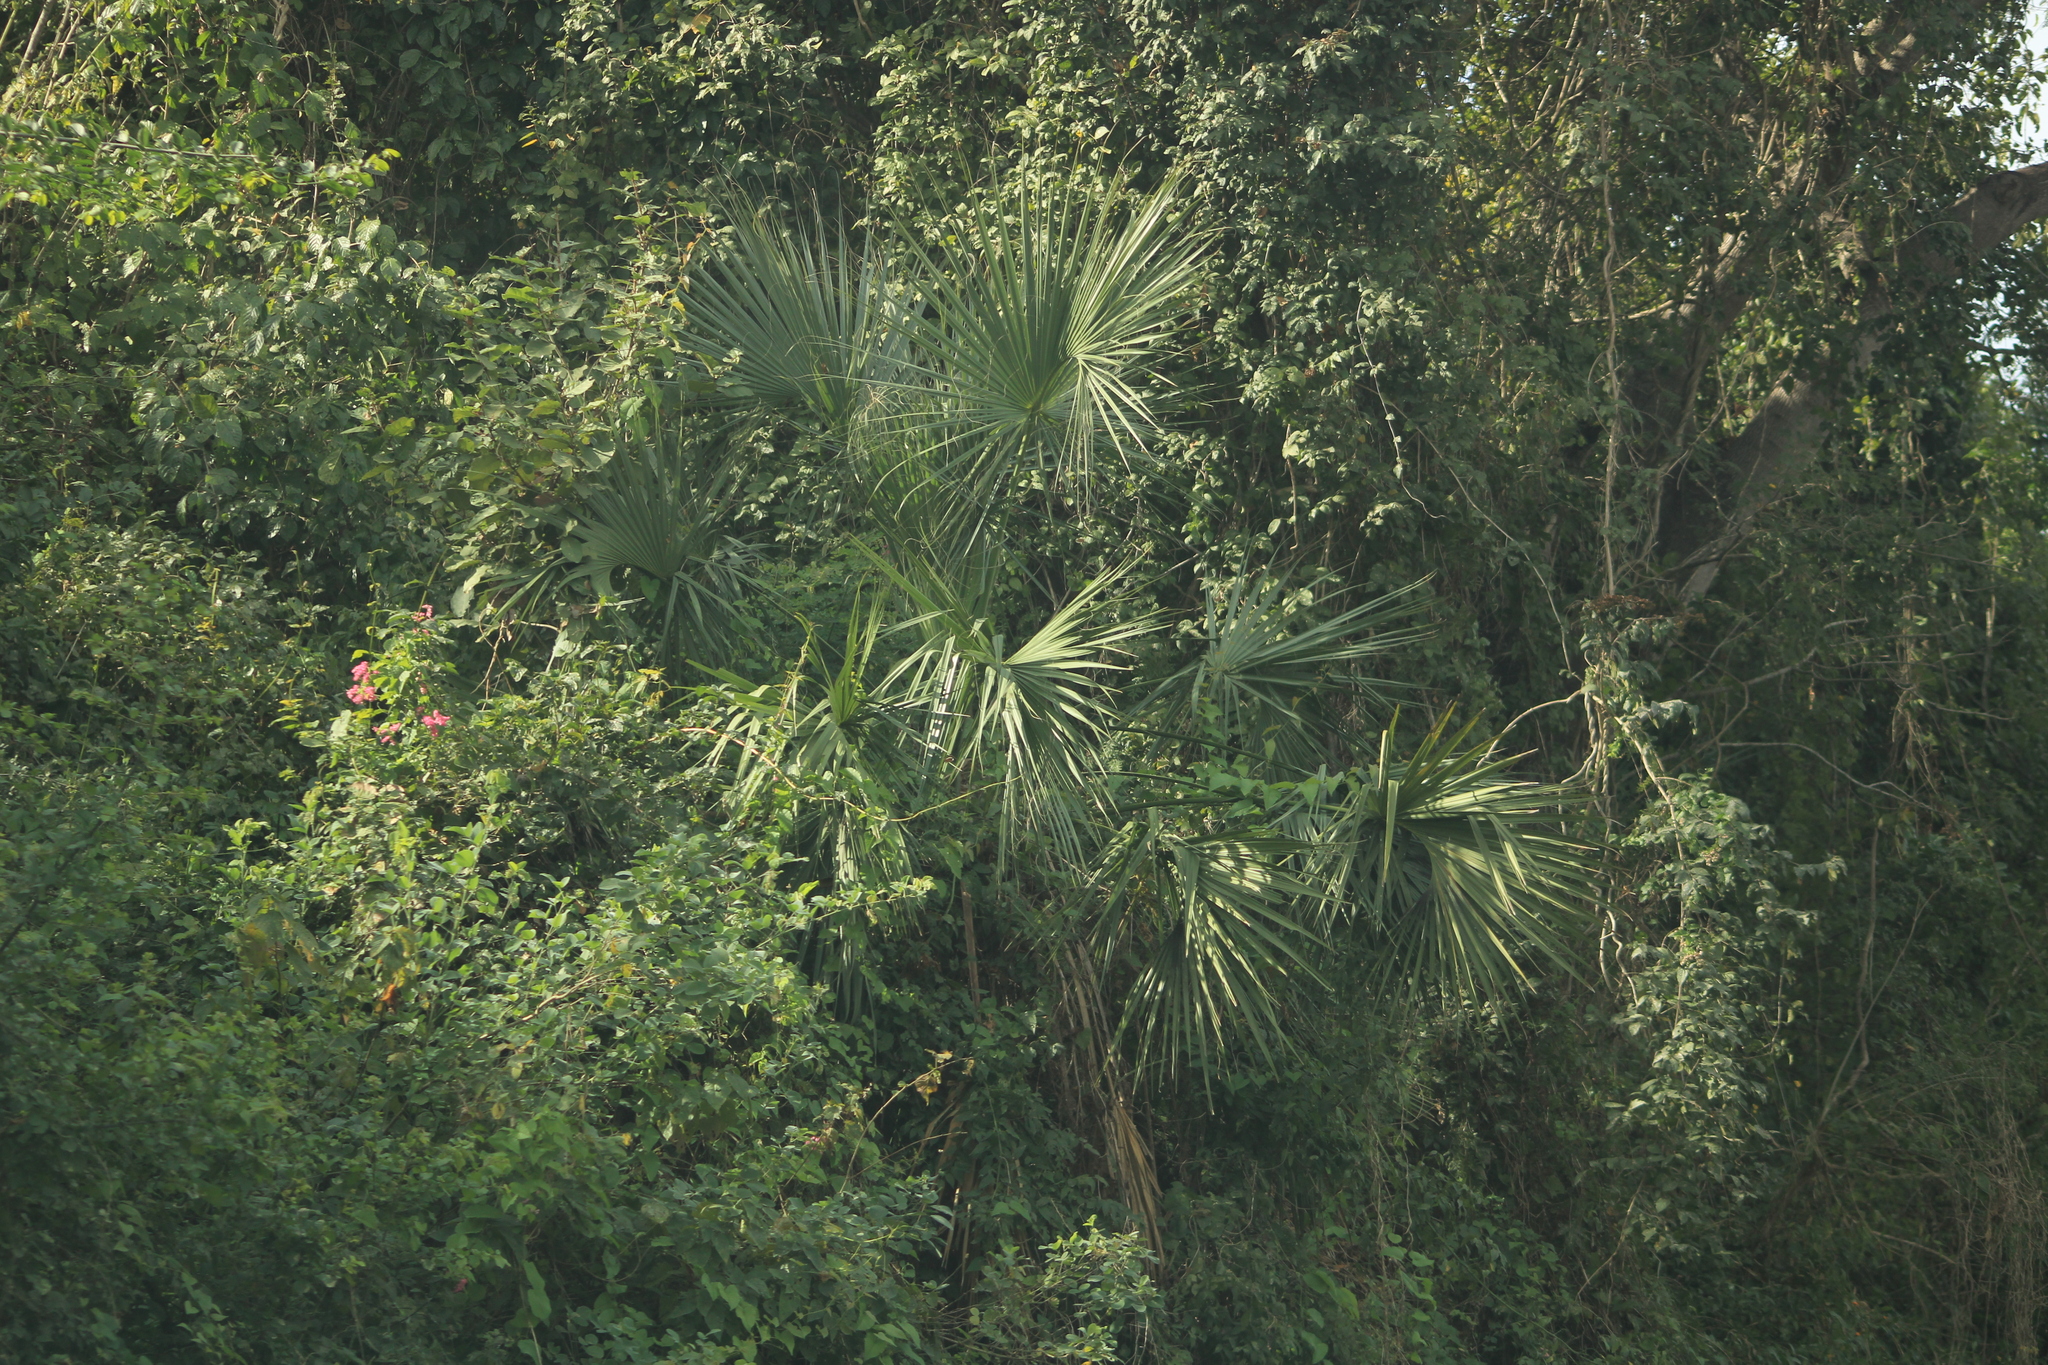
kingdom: Plantae
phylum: Tracheophyta
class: Liliopsida
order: Arecales
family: Arecaceae
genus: Sabal
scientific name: Sabal rosei
